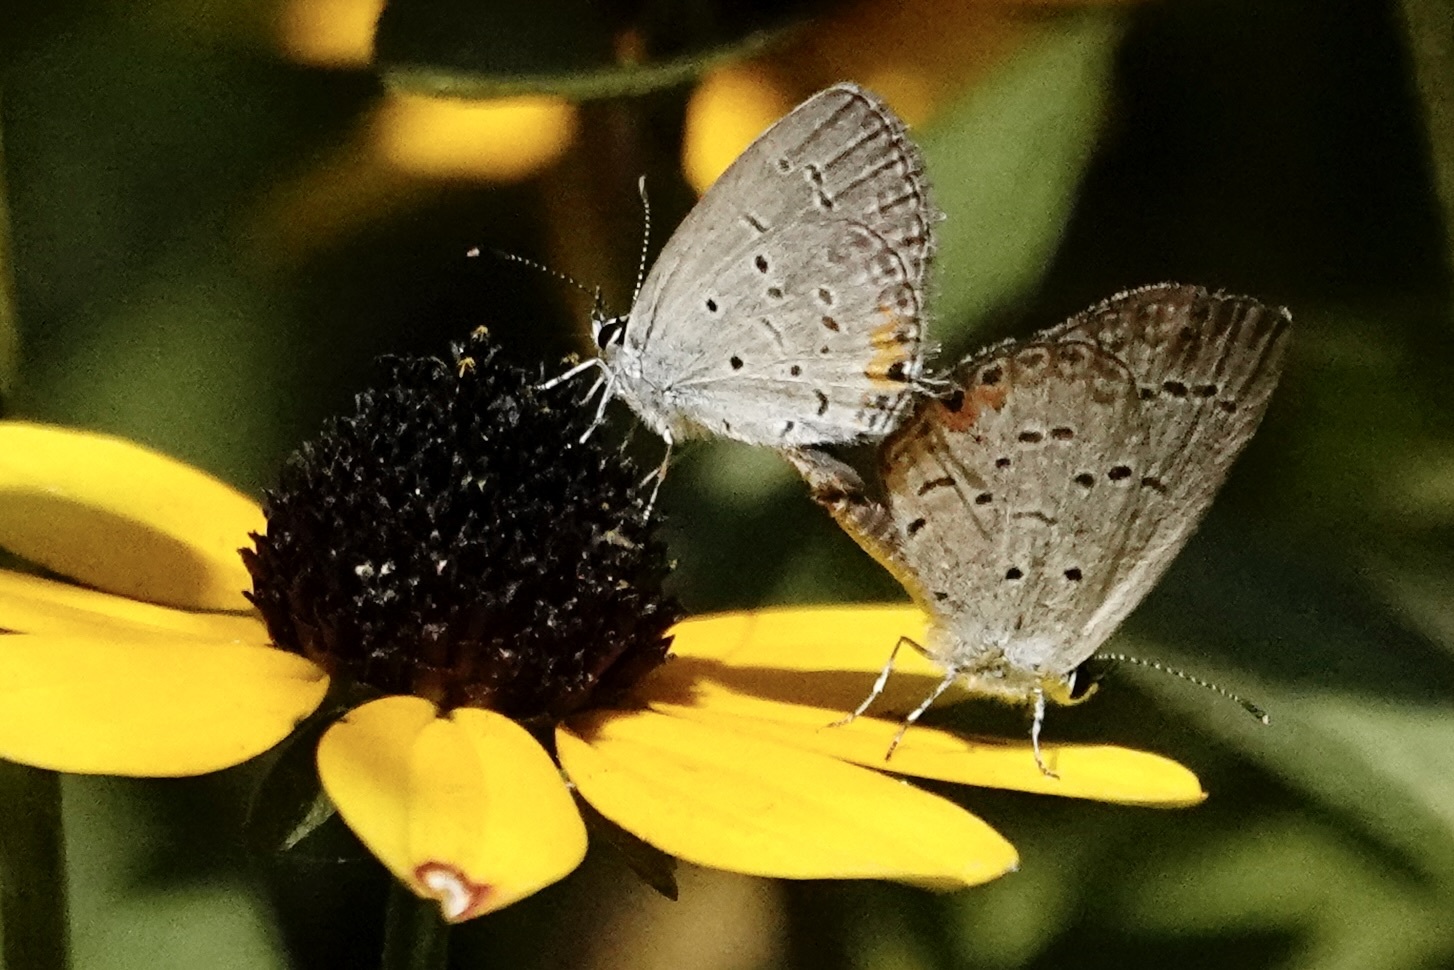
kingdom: Animalia
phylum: Arthropoda
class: Insecta
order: Lepidoptera
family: Lycaenidae
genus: Elkalyce
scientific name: Elkalyce comyntas
